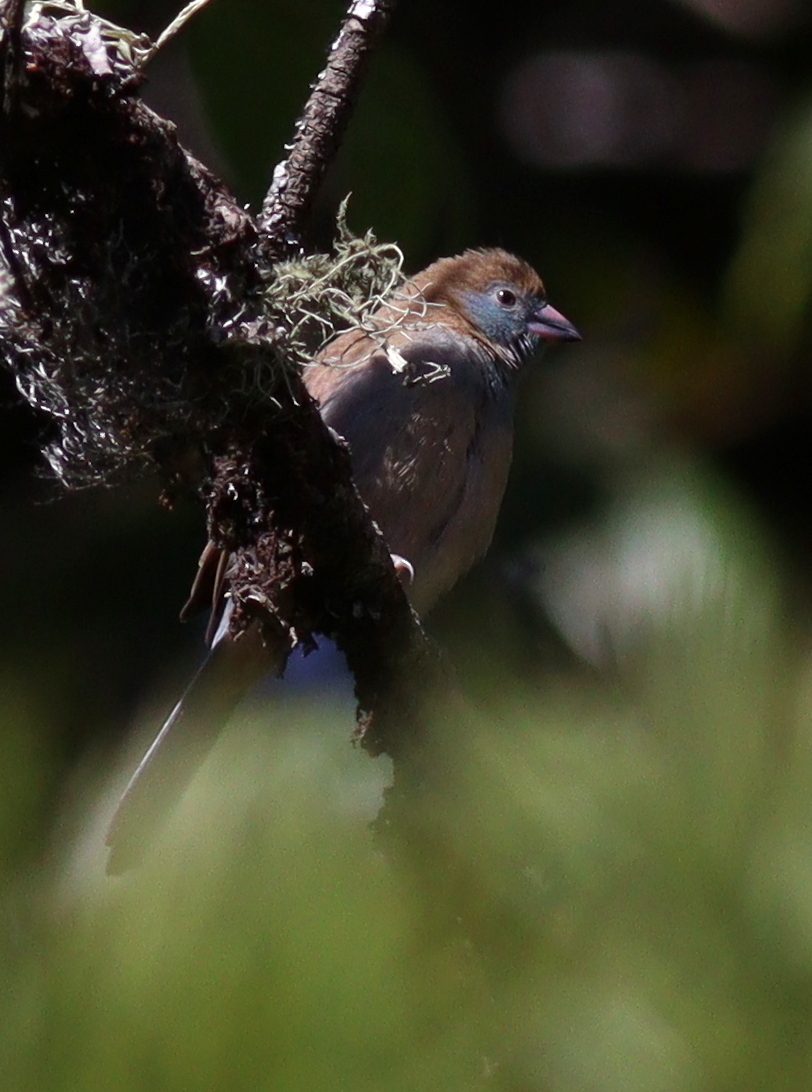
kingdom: Animalia
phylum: Chordata
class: Aves
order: Passeriformes
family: Estrildidae
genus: Uraeginthus
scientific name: Uraeginthus bengalus
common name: Red-cheeked cordon-bleu
